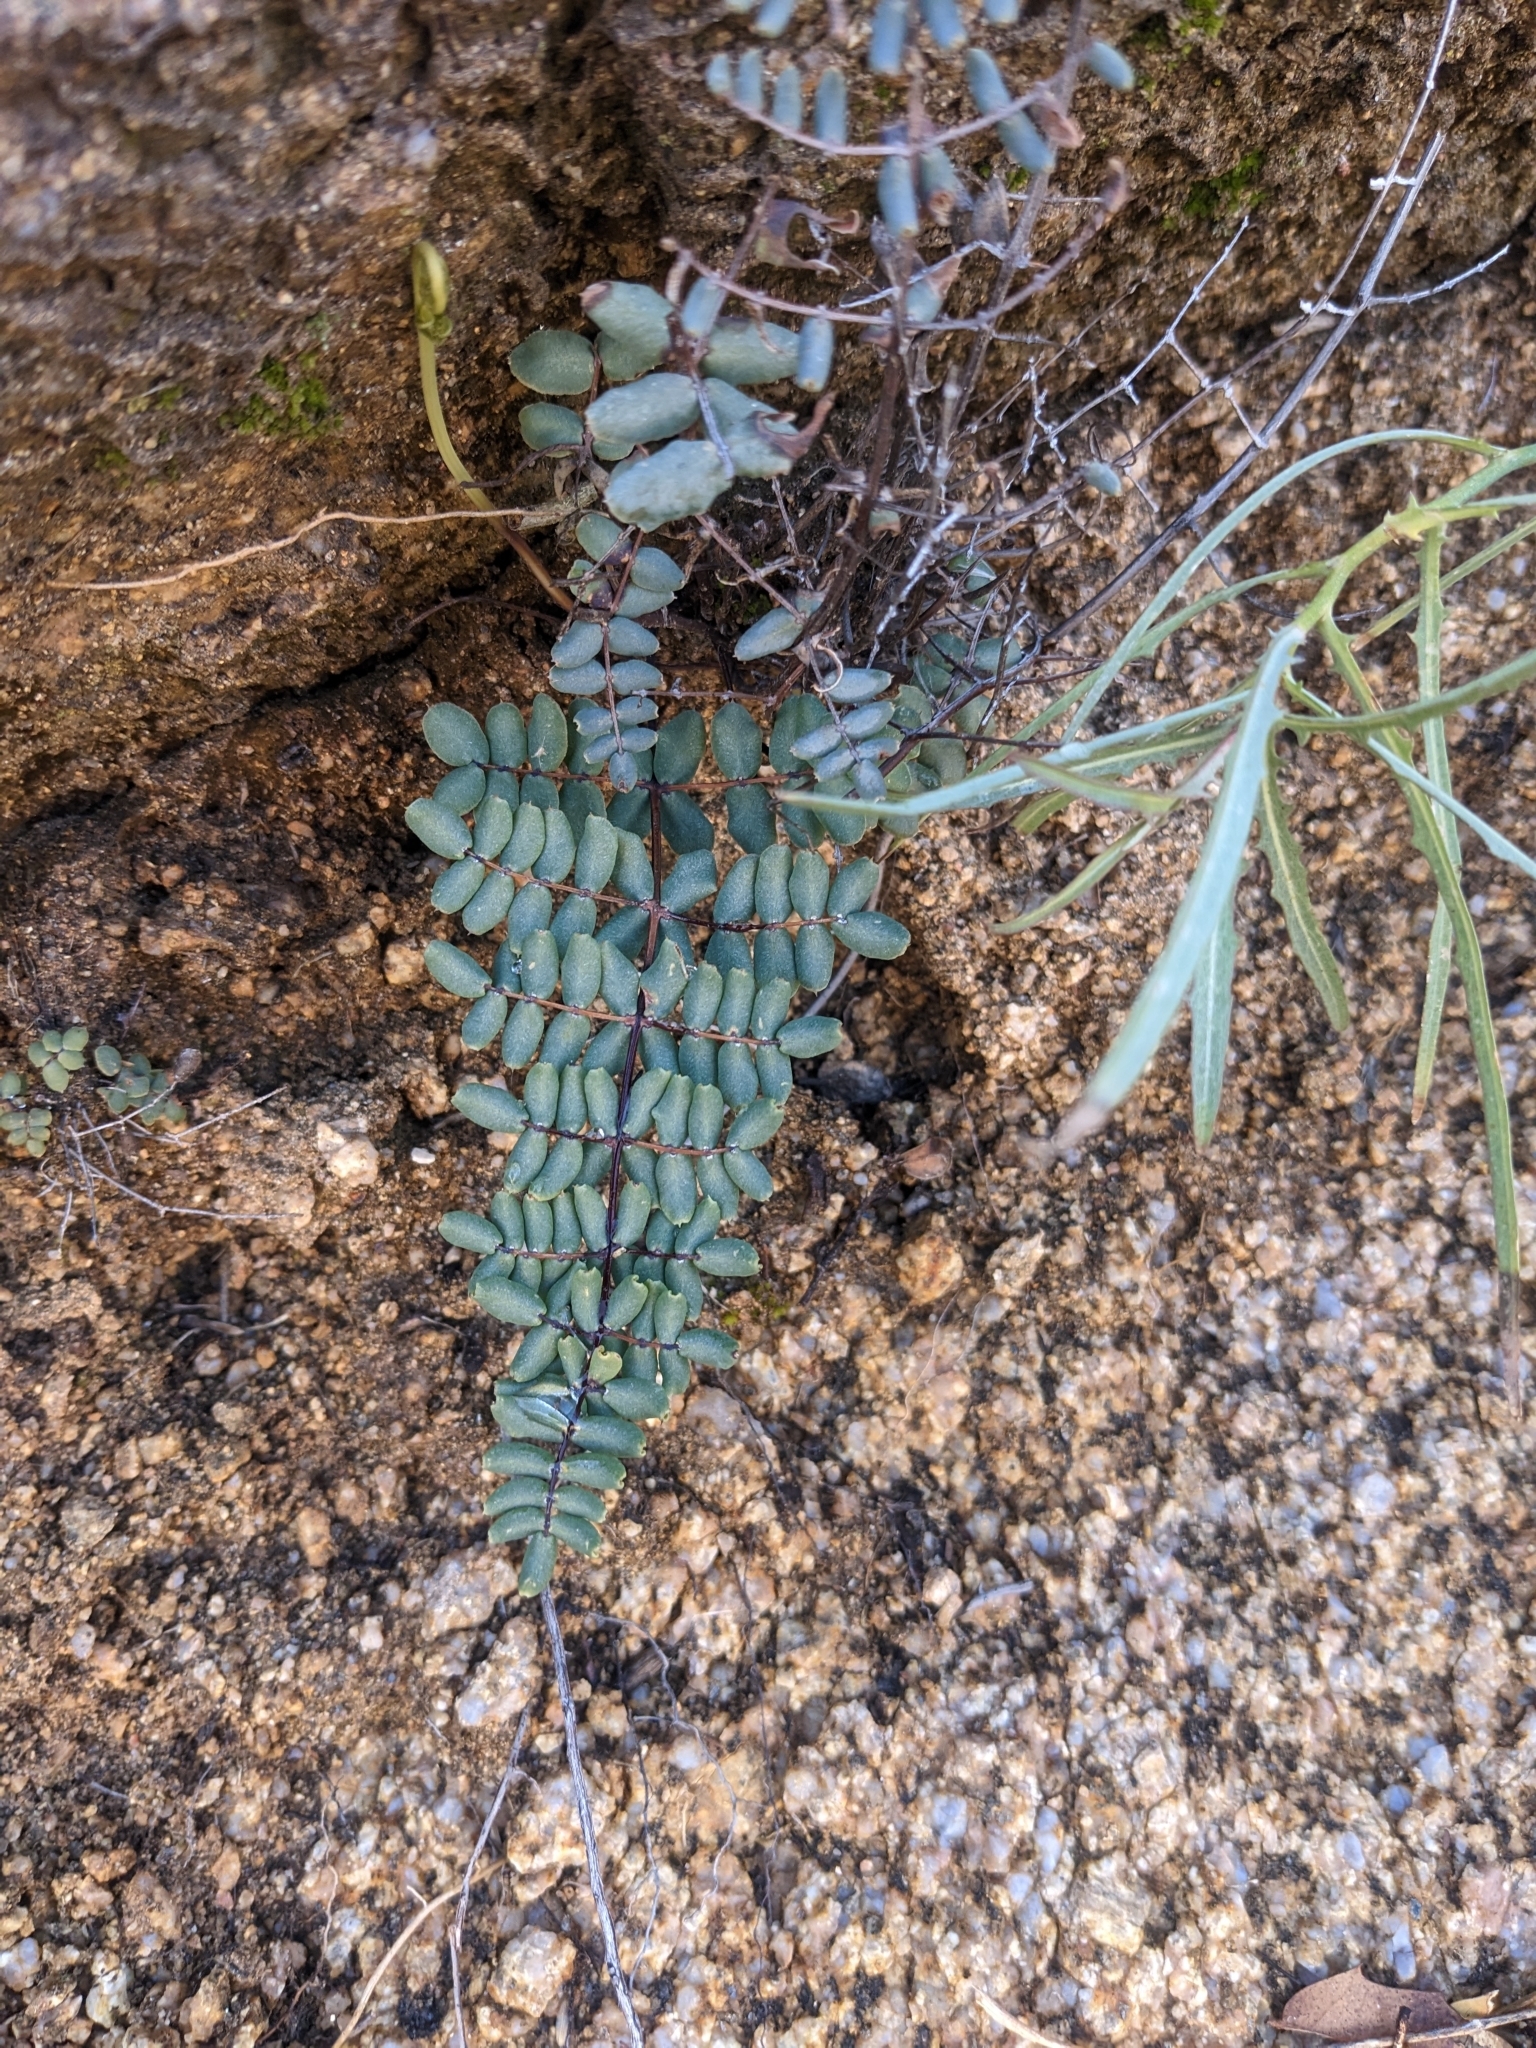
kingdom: Plantae
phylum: Tracheophyta
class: Polypodiopsida
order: Polypodiales
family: Pteridaceae
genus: Pellaea
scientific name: Pellaea truncata
